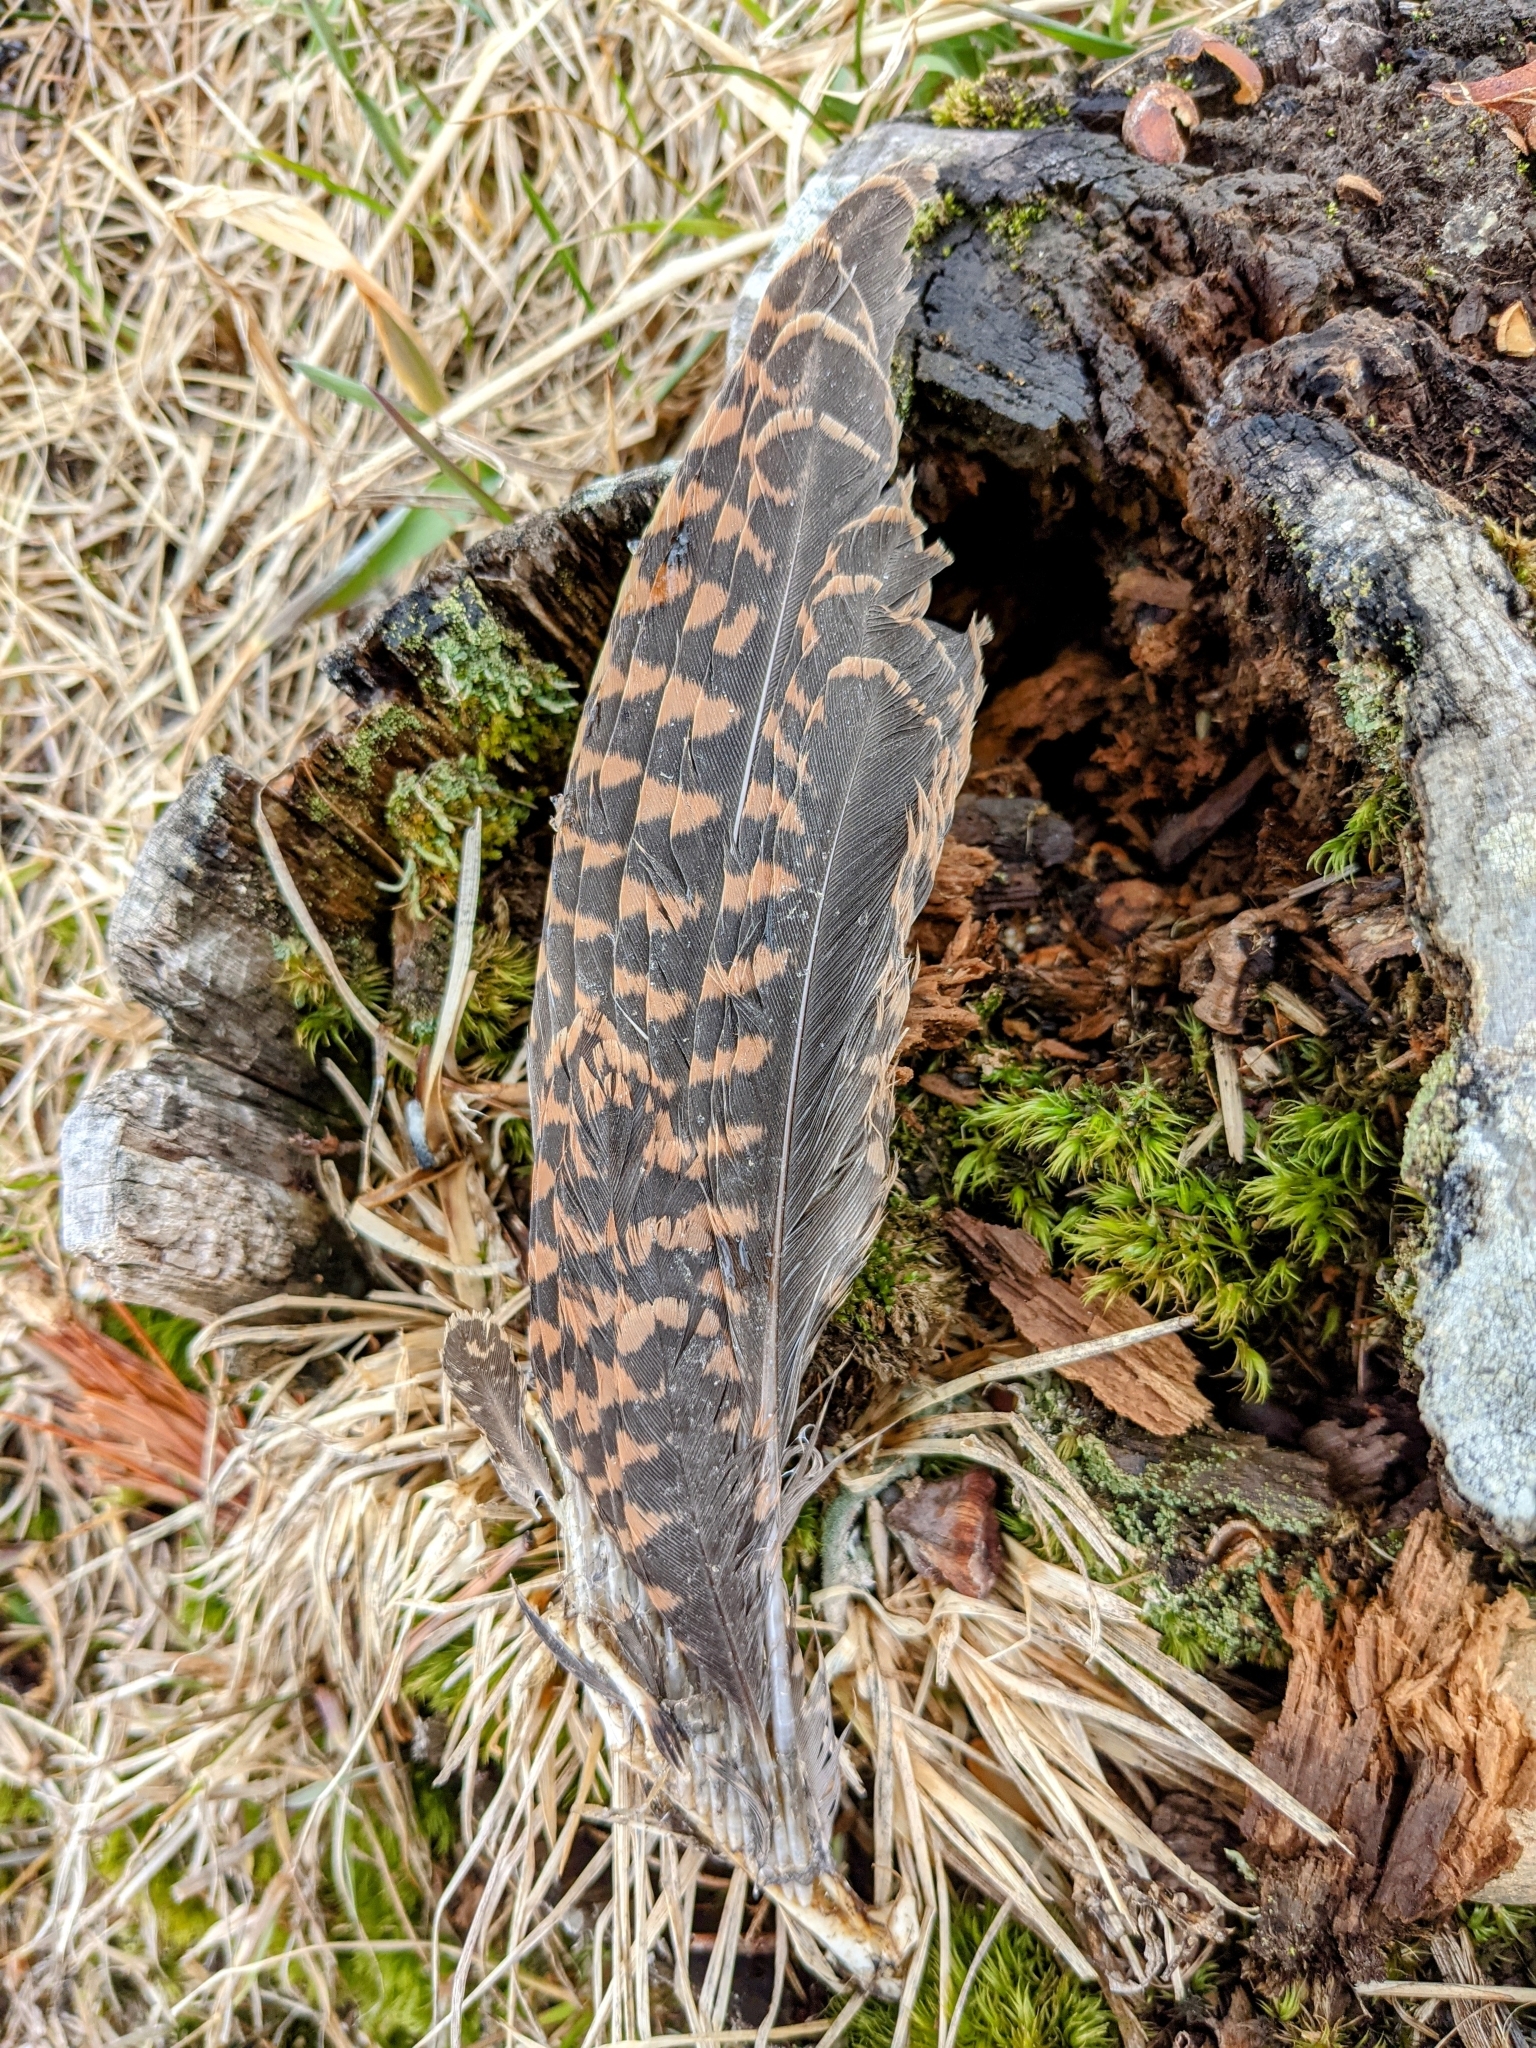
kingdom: Animalia
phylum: Chordata
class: Aves
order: Charadriiformes
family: Scolopacidae
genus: Scolopax
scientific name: Scolopax rusticola
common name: Eurasian woodcock
